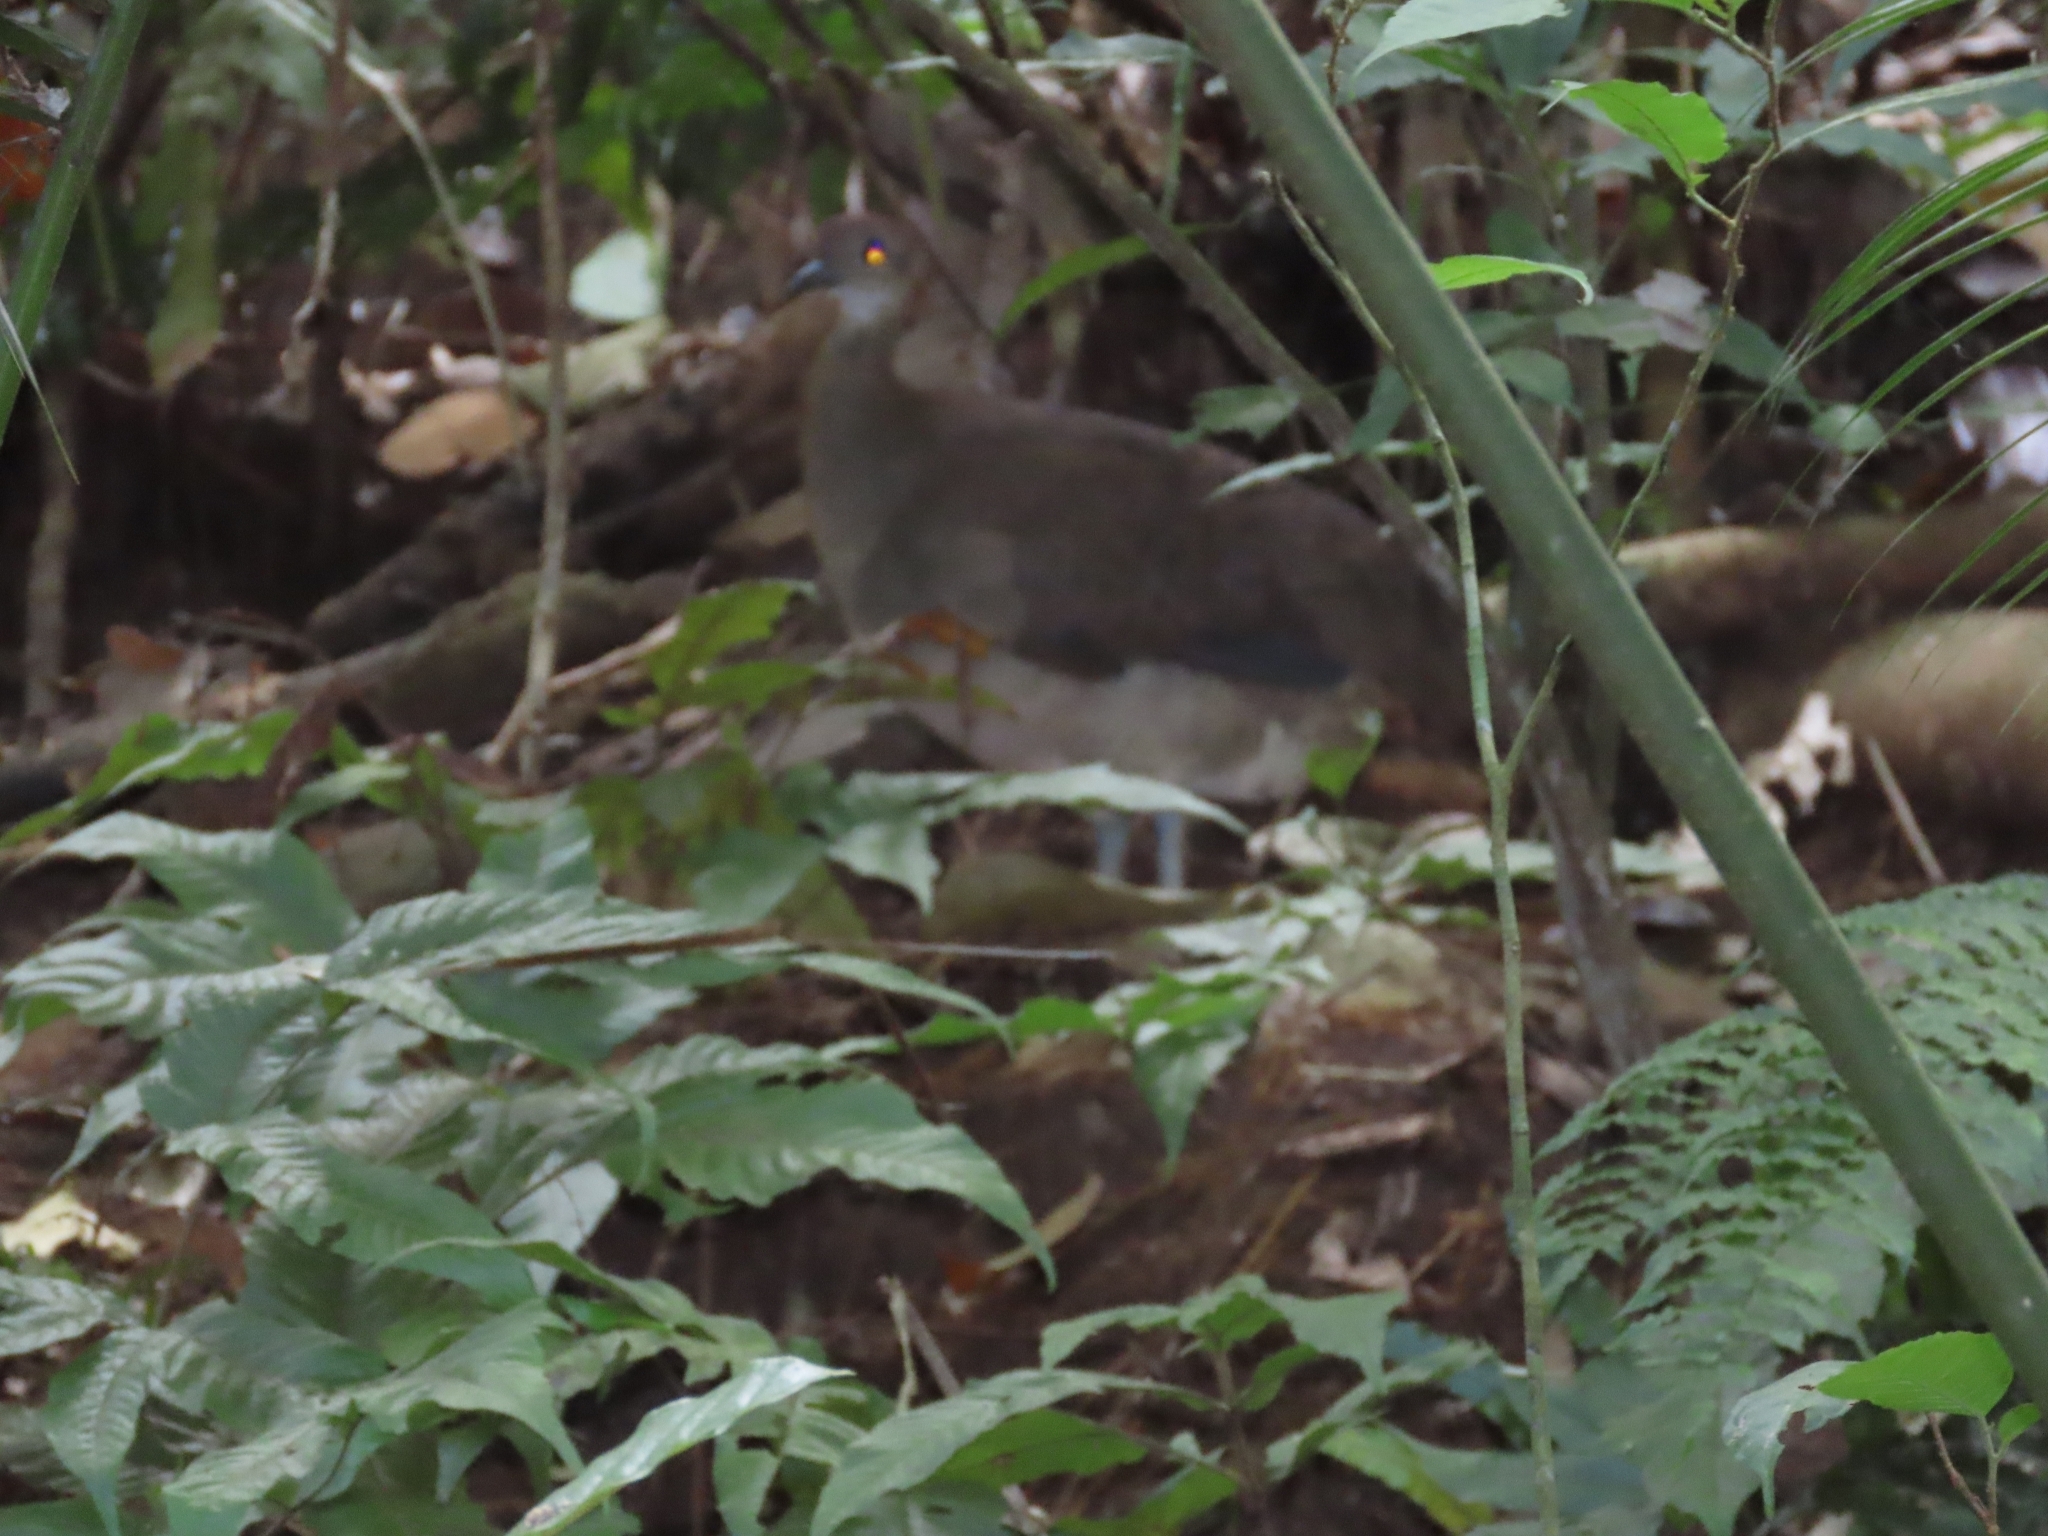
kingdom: Animalia
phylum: Chordata
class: Aves
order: Tinamiformes
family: Tinamidae
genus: Tinamus
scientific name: Tinamus major
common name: Great tinamou
